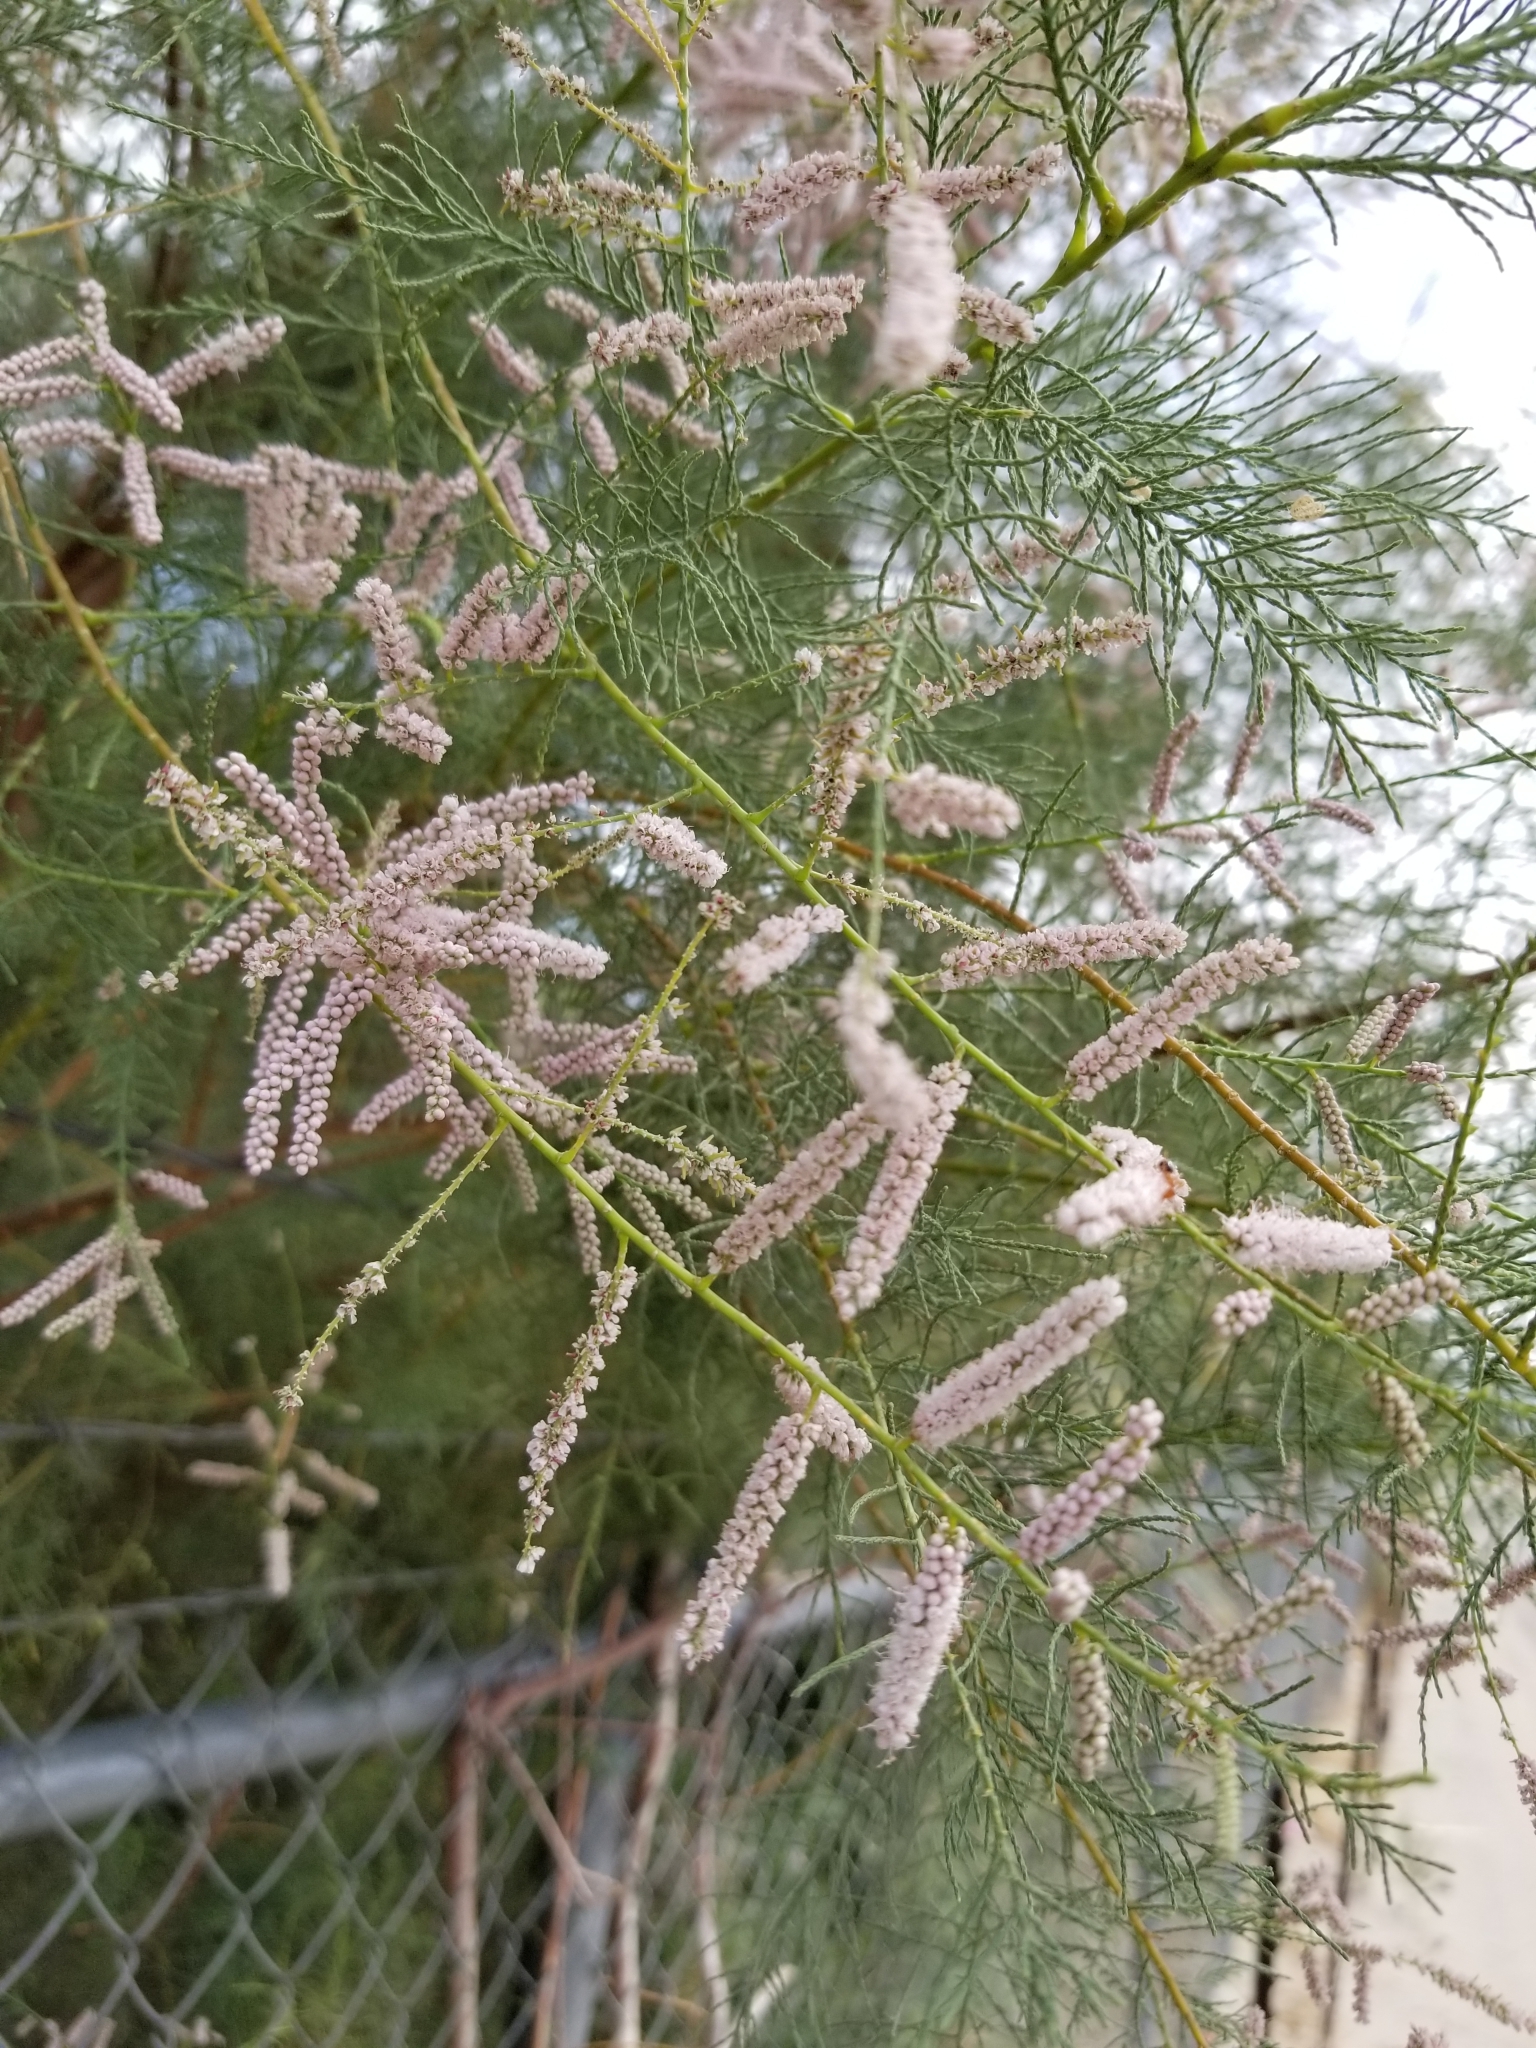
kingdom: Plantae
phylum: Tracheophyta
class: Magnoliopsida
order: Caryophyllales
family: Tamaricaceae
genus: Tamarix
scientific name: Tamarix ramosissima
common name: Pink tamarisk
